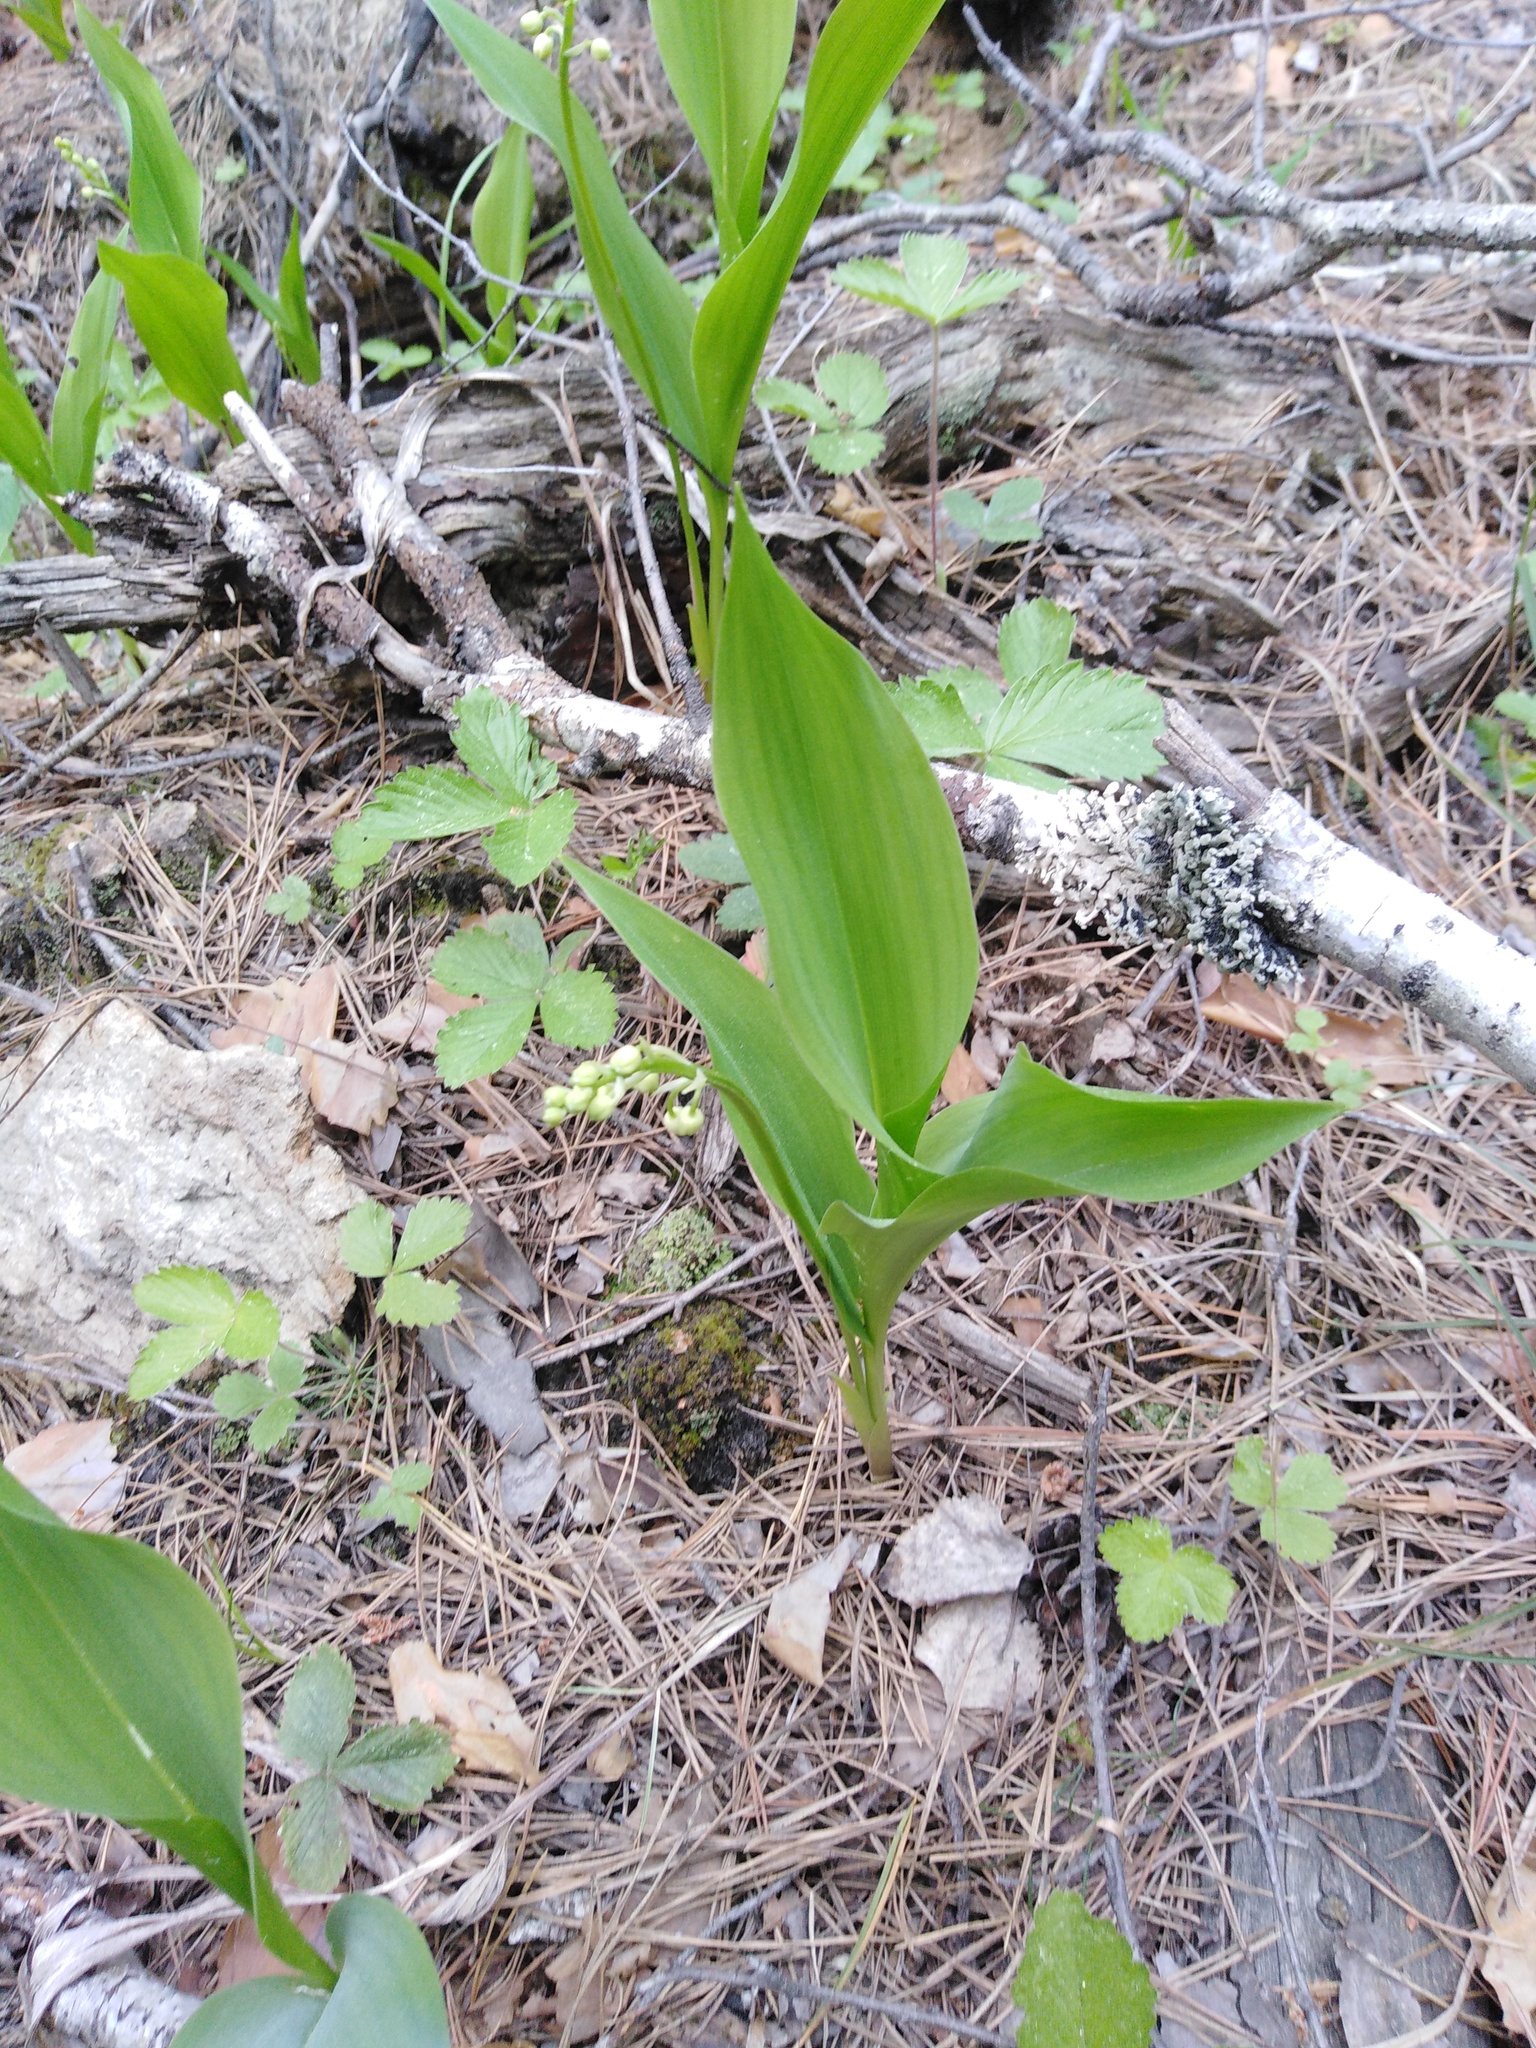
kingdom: Plantae
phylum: Tracheophyta
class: Liliopsida
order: Asparagales
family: Asparagaceae
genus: Convallaria
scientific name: Convallaria majalis
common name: Lily-of-the-valley
